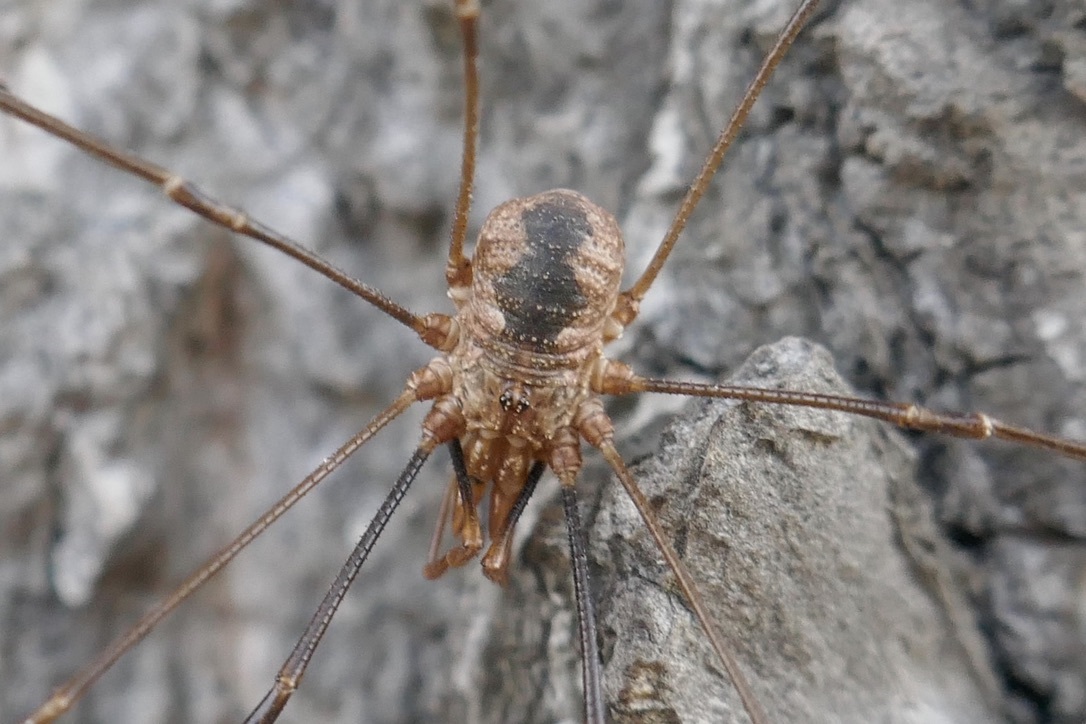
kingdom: Animalia
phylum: Arthropoda
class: Arachnida
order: Opiliones
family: Phalangiidae
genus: Phalangium
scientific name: Phalangium opilio
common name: Daddy longleg
